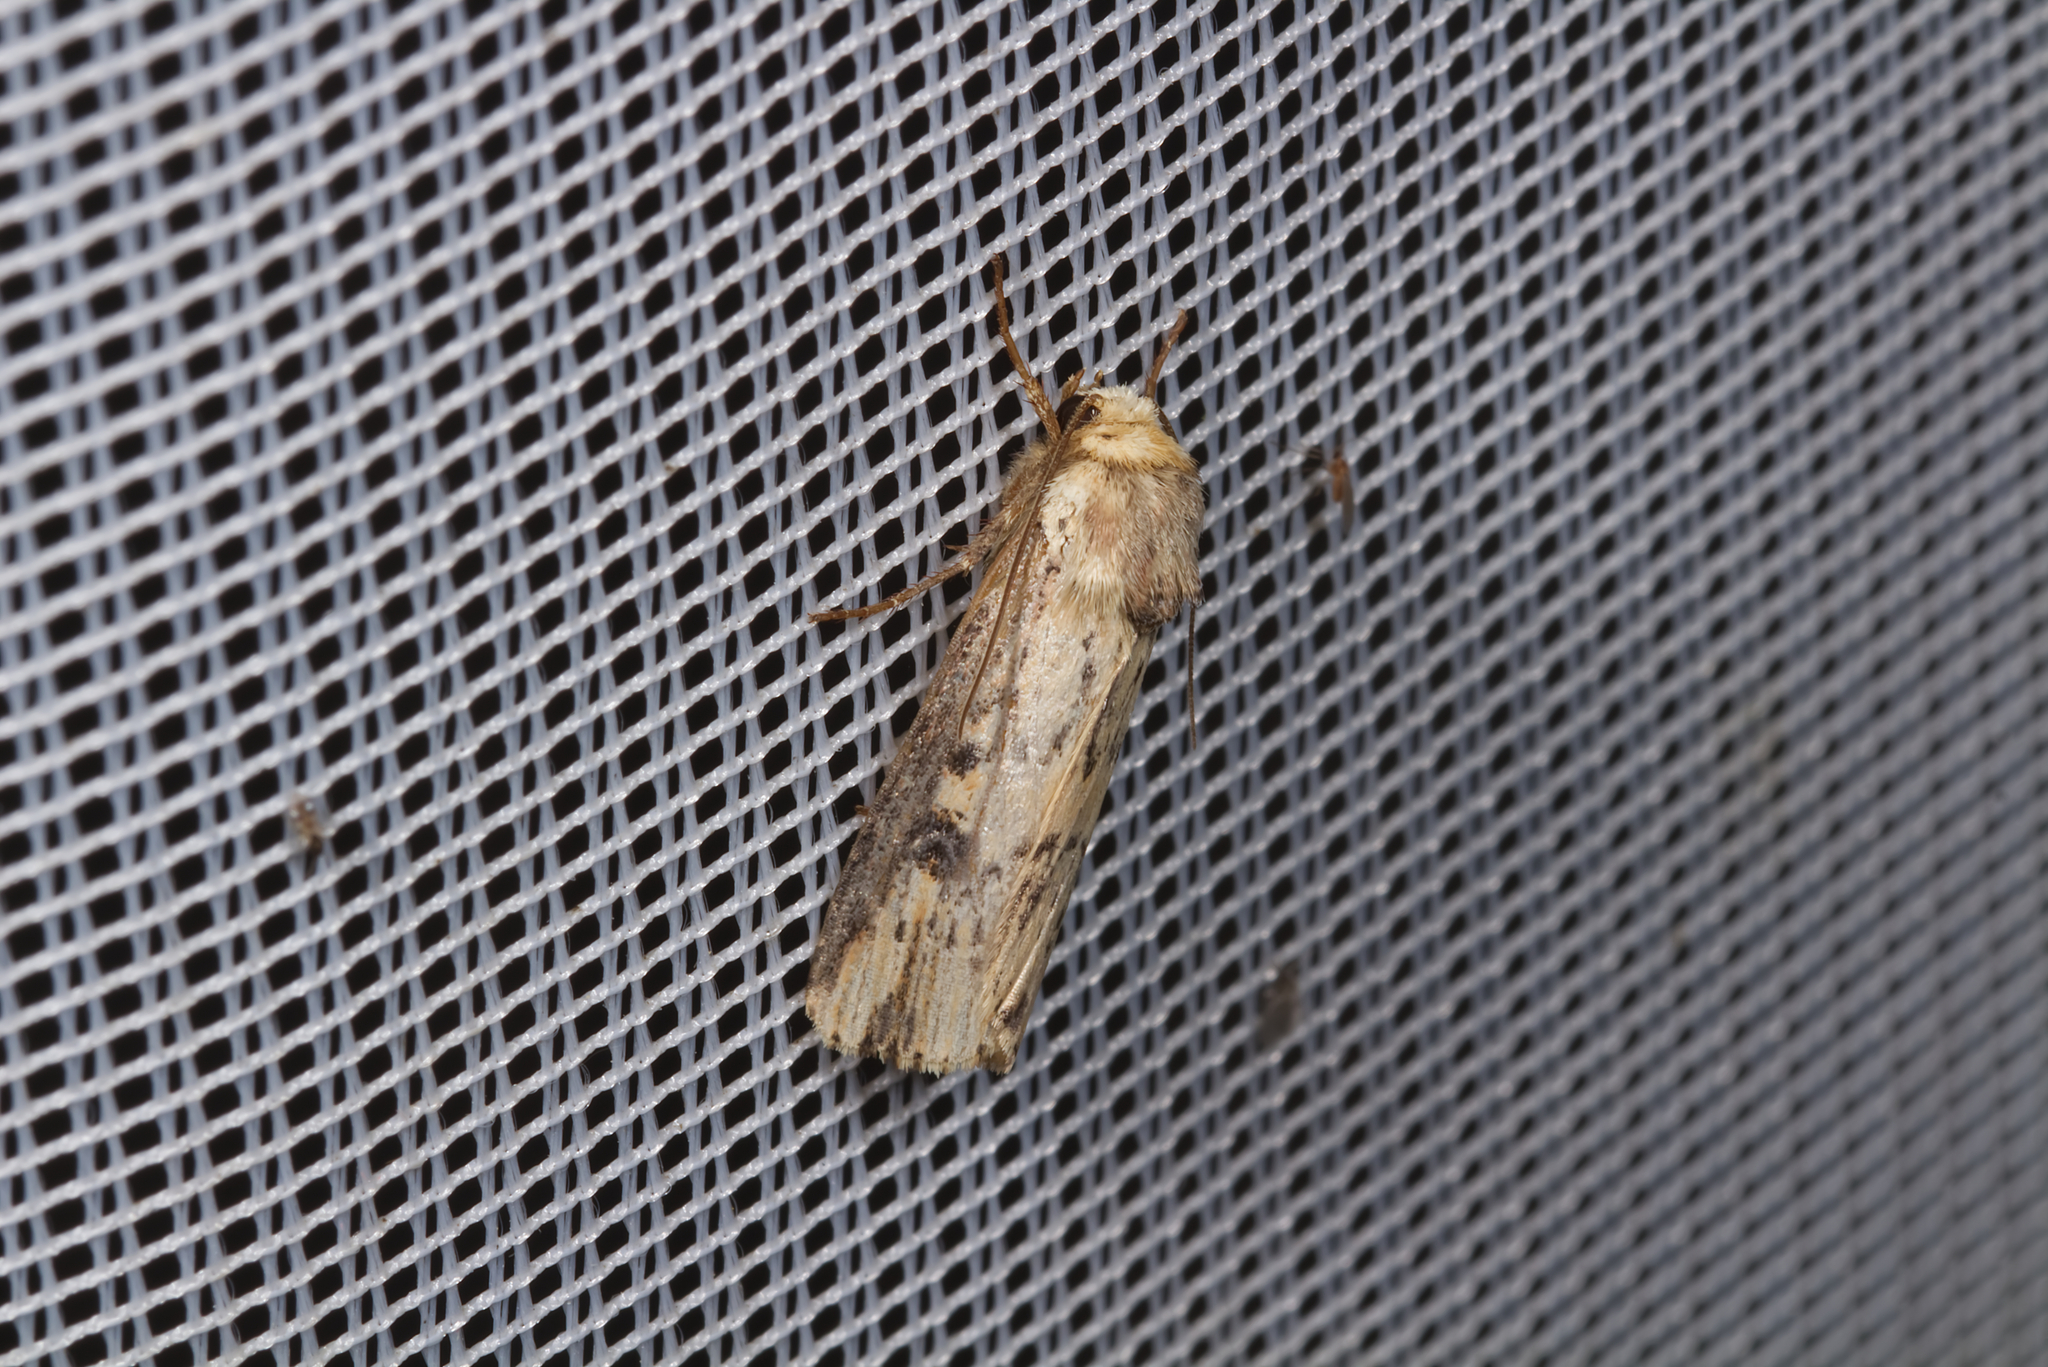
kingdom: Animalia
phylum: Arthropoda
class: Insecta
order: Lepidoptera
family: Noctuidae
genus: Axylia
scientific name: Axylia putris
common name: Flame
